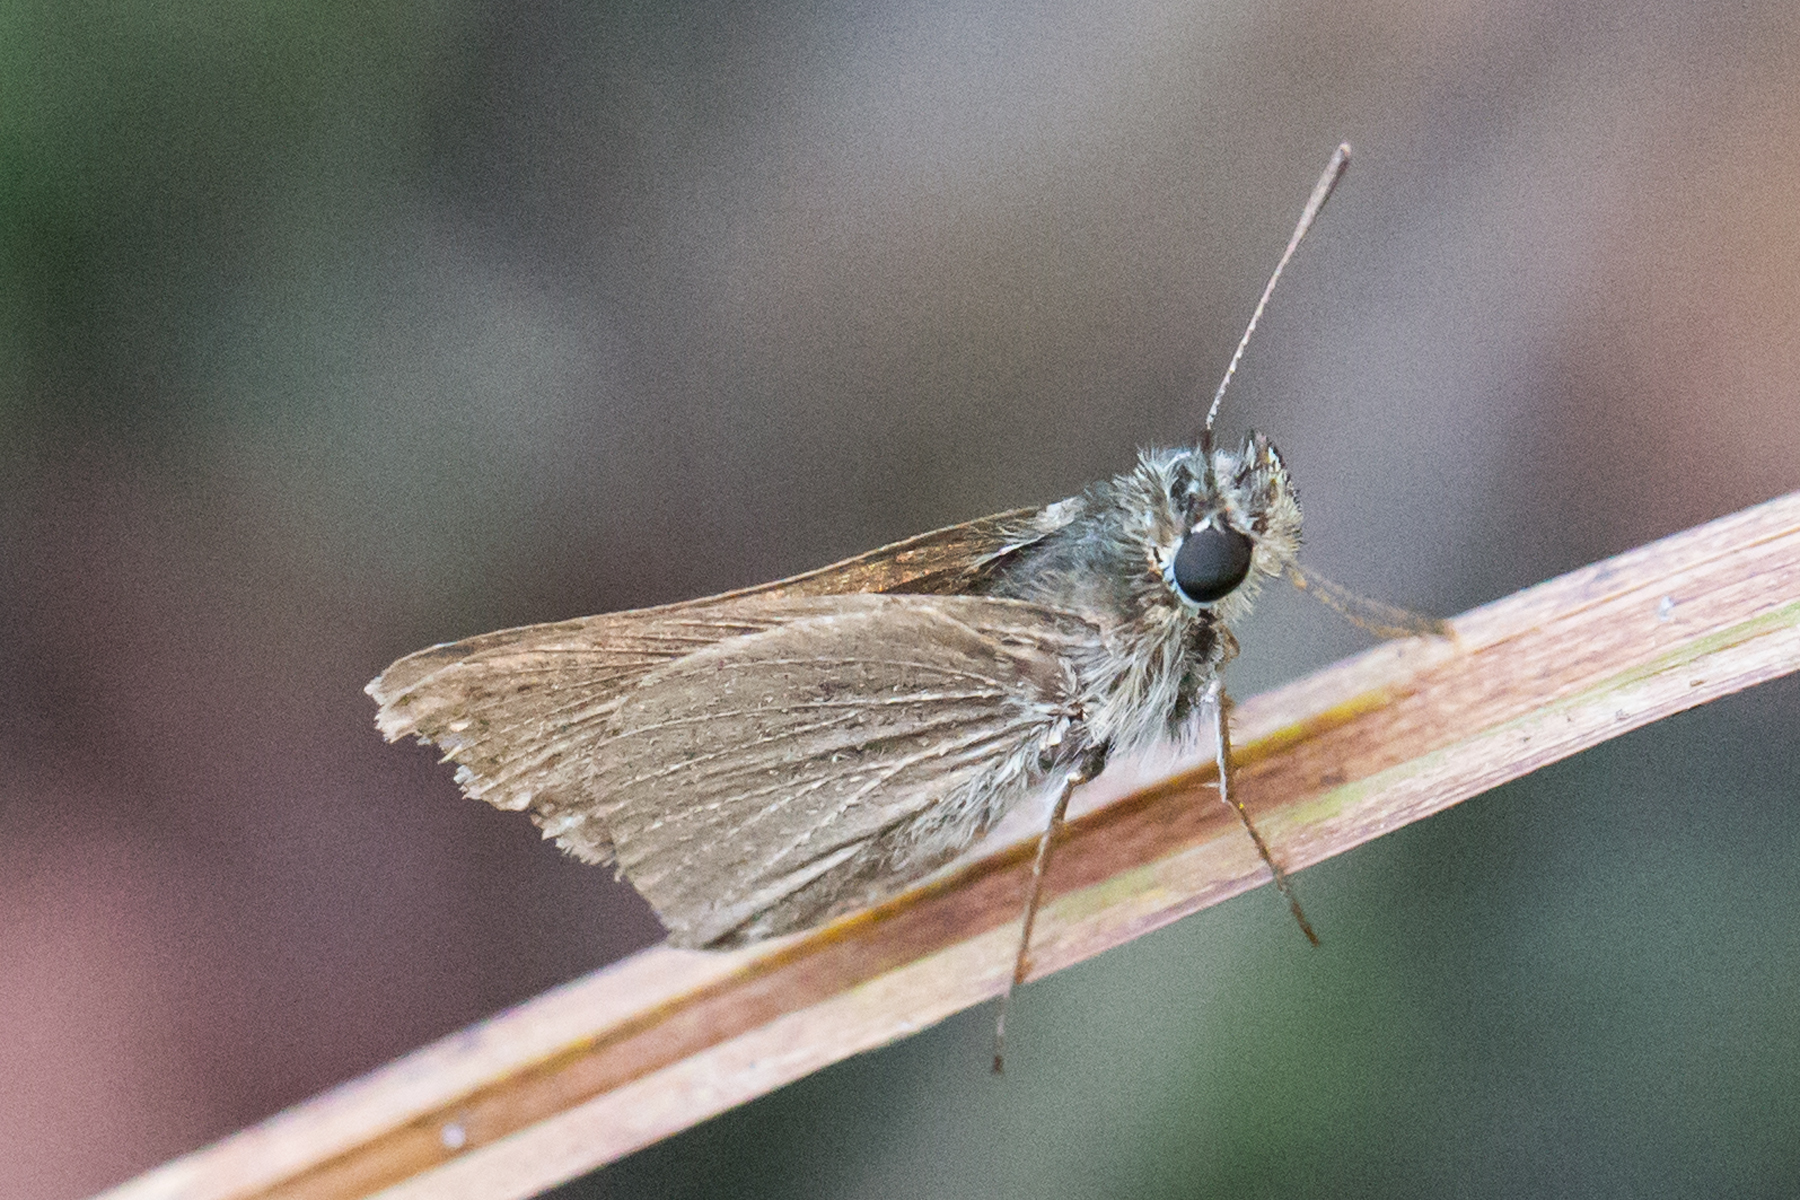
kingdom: Animalia
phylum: Arthropoda
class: Insecta
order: Lepidoptera
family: Hesperiidae
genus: Nastra
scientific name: Nastra lherminier
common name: Swarthy skipper
